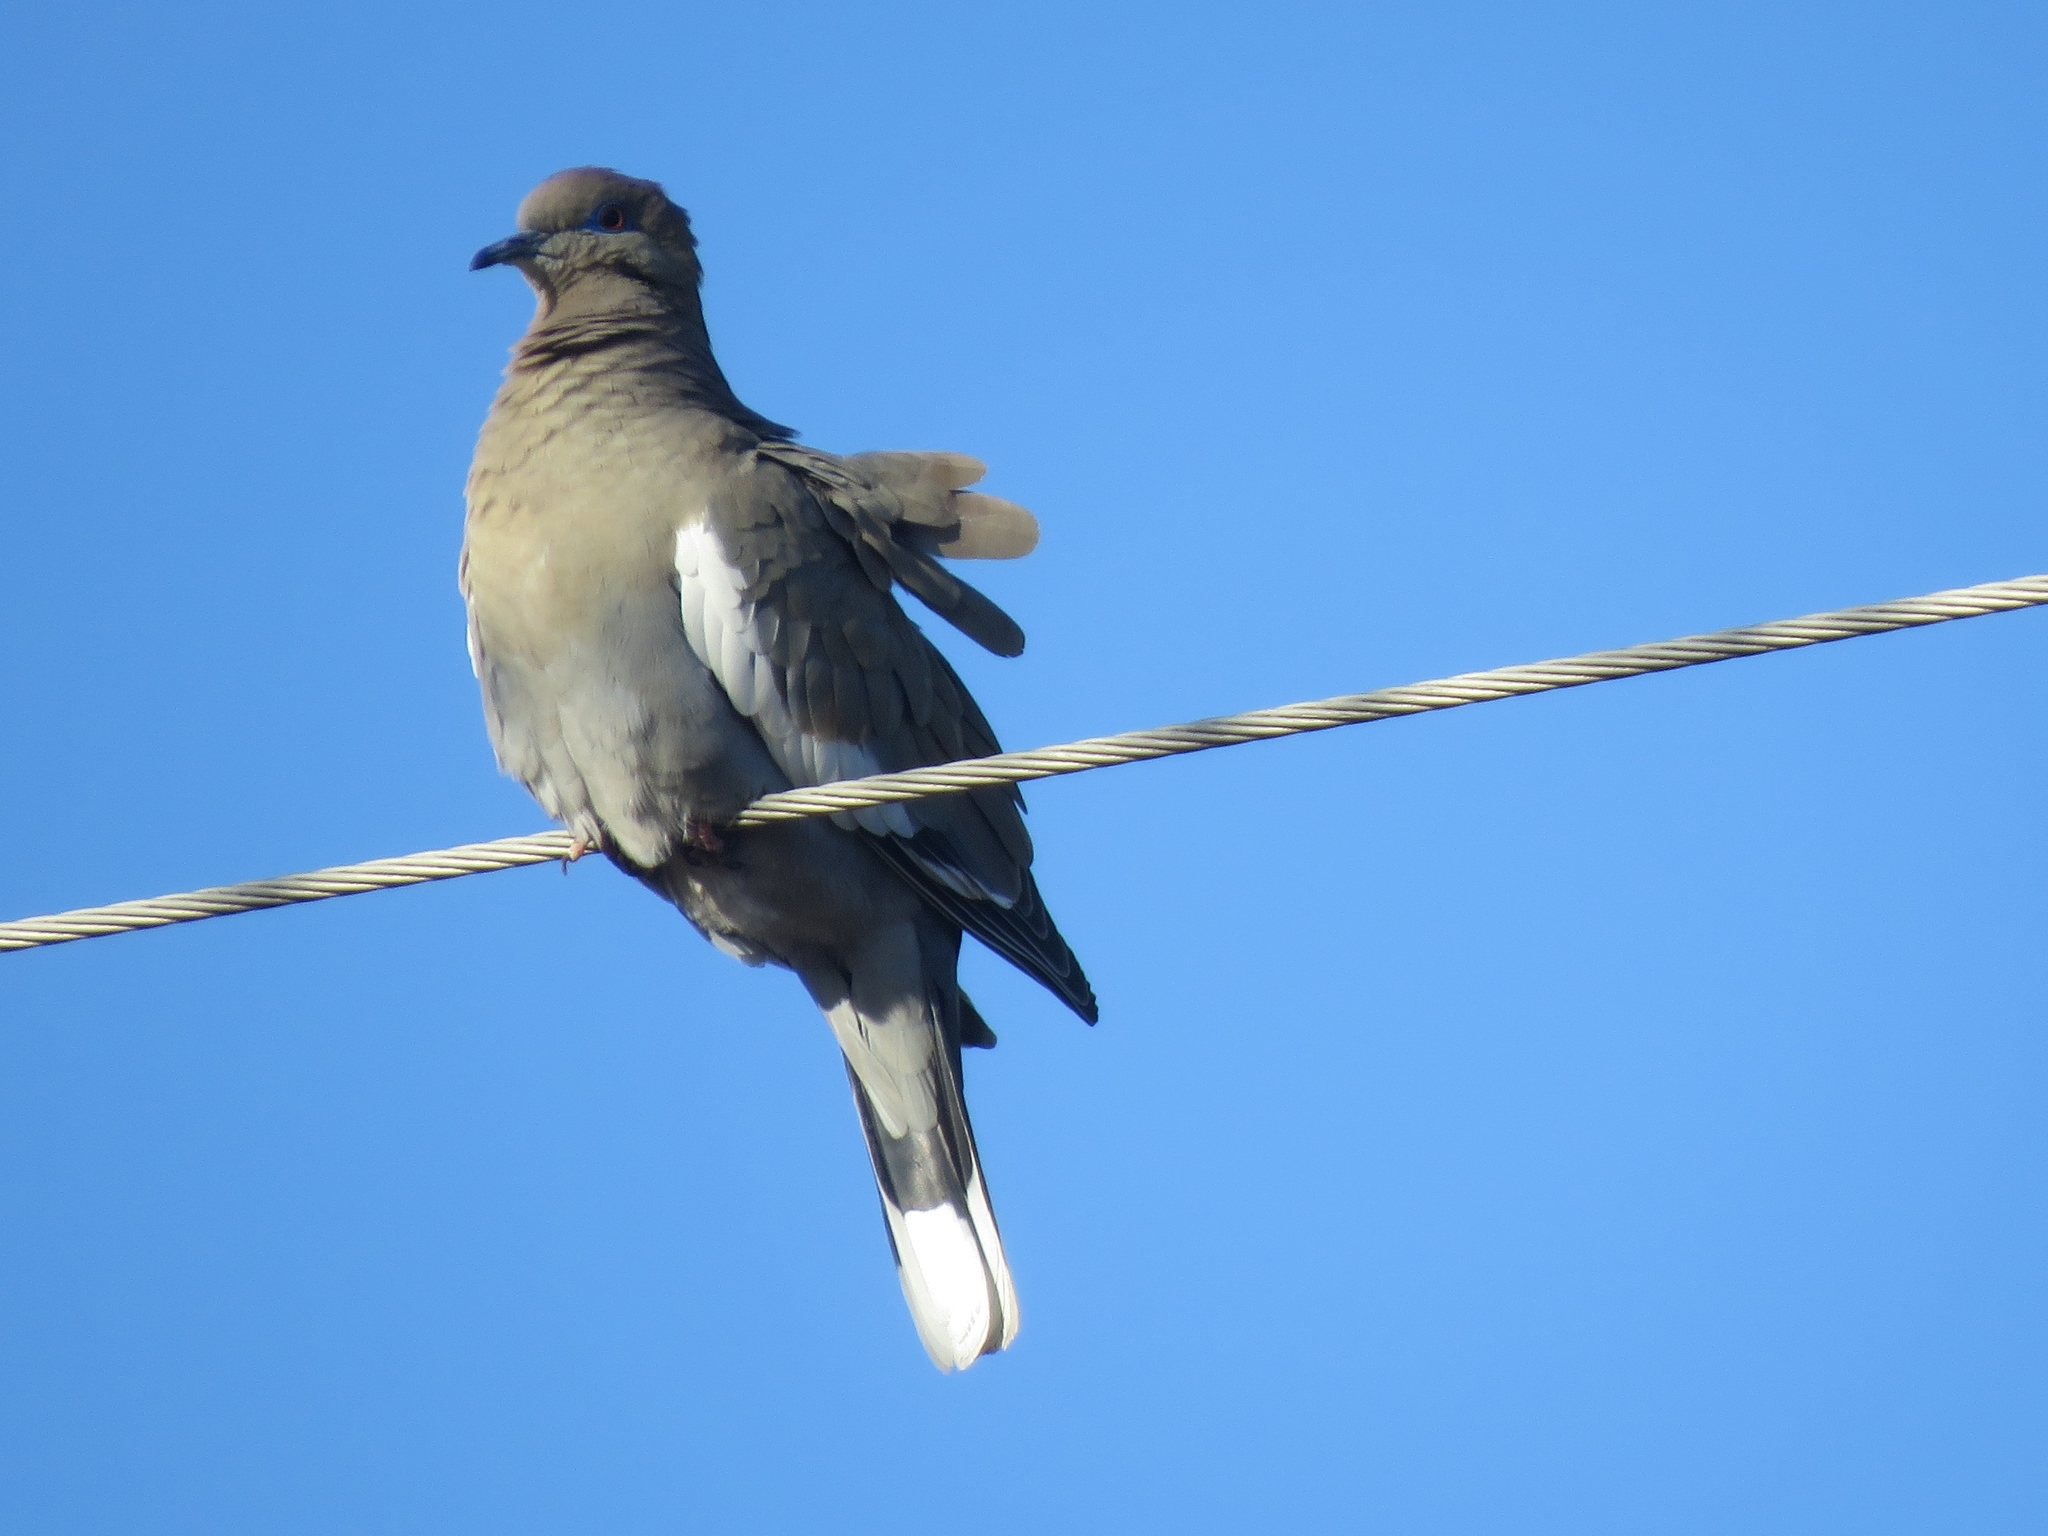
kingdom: Animalia
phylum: Chordata
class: Aves
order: Columbiformes
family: Columbidae
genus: Zenaida
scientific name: Zenaida asiatica
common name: White-winged dove
